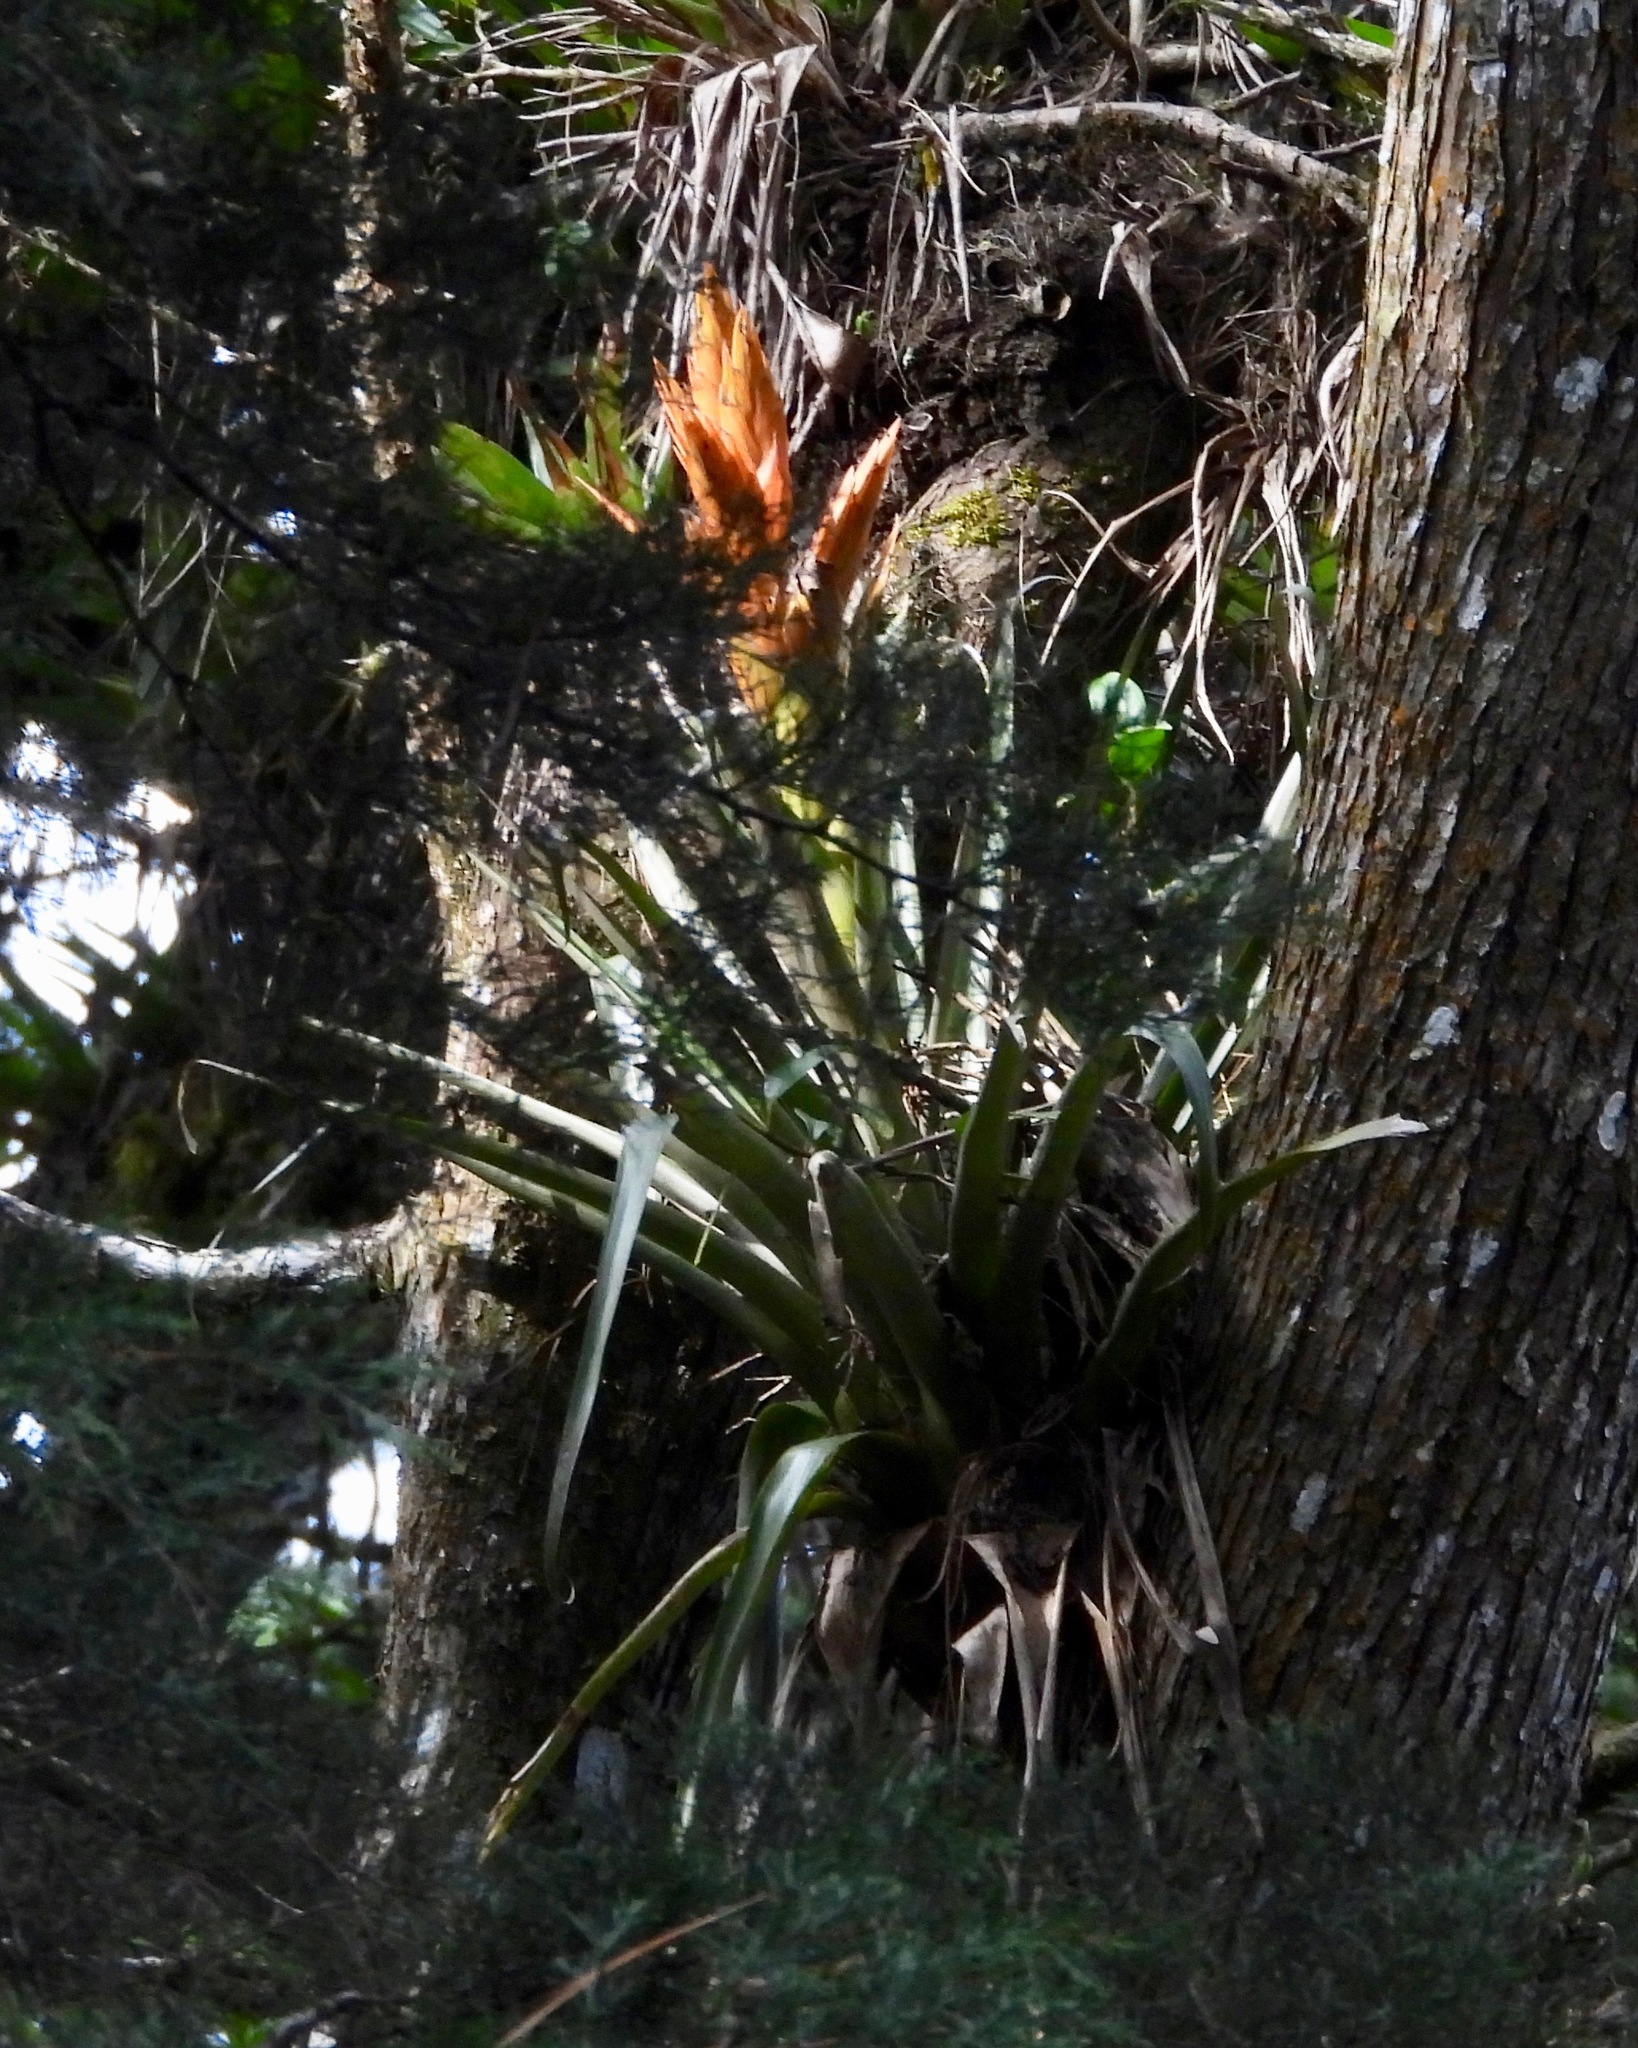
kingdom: Plantae
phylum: Tracheophyta
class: Liliopsida
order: Poales
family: Bromeliaceae
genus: Tillandsia
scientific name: Tillandsia ponderosa
